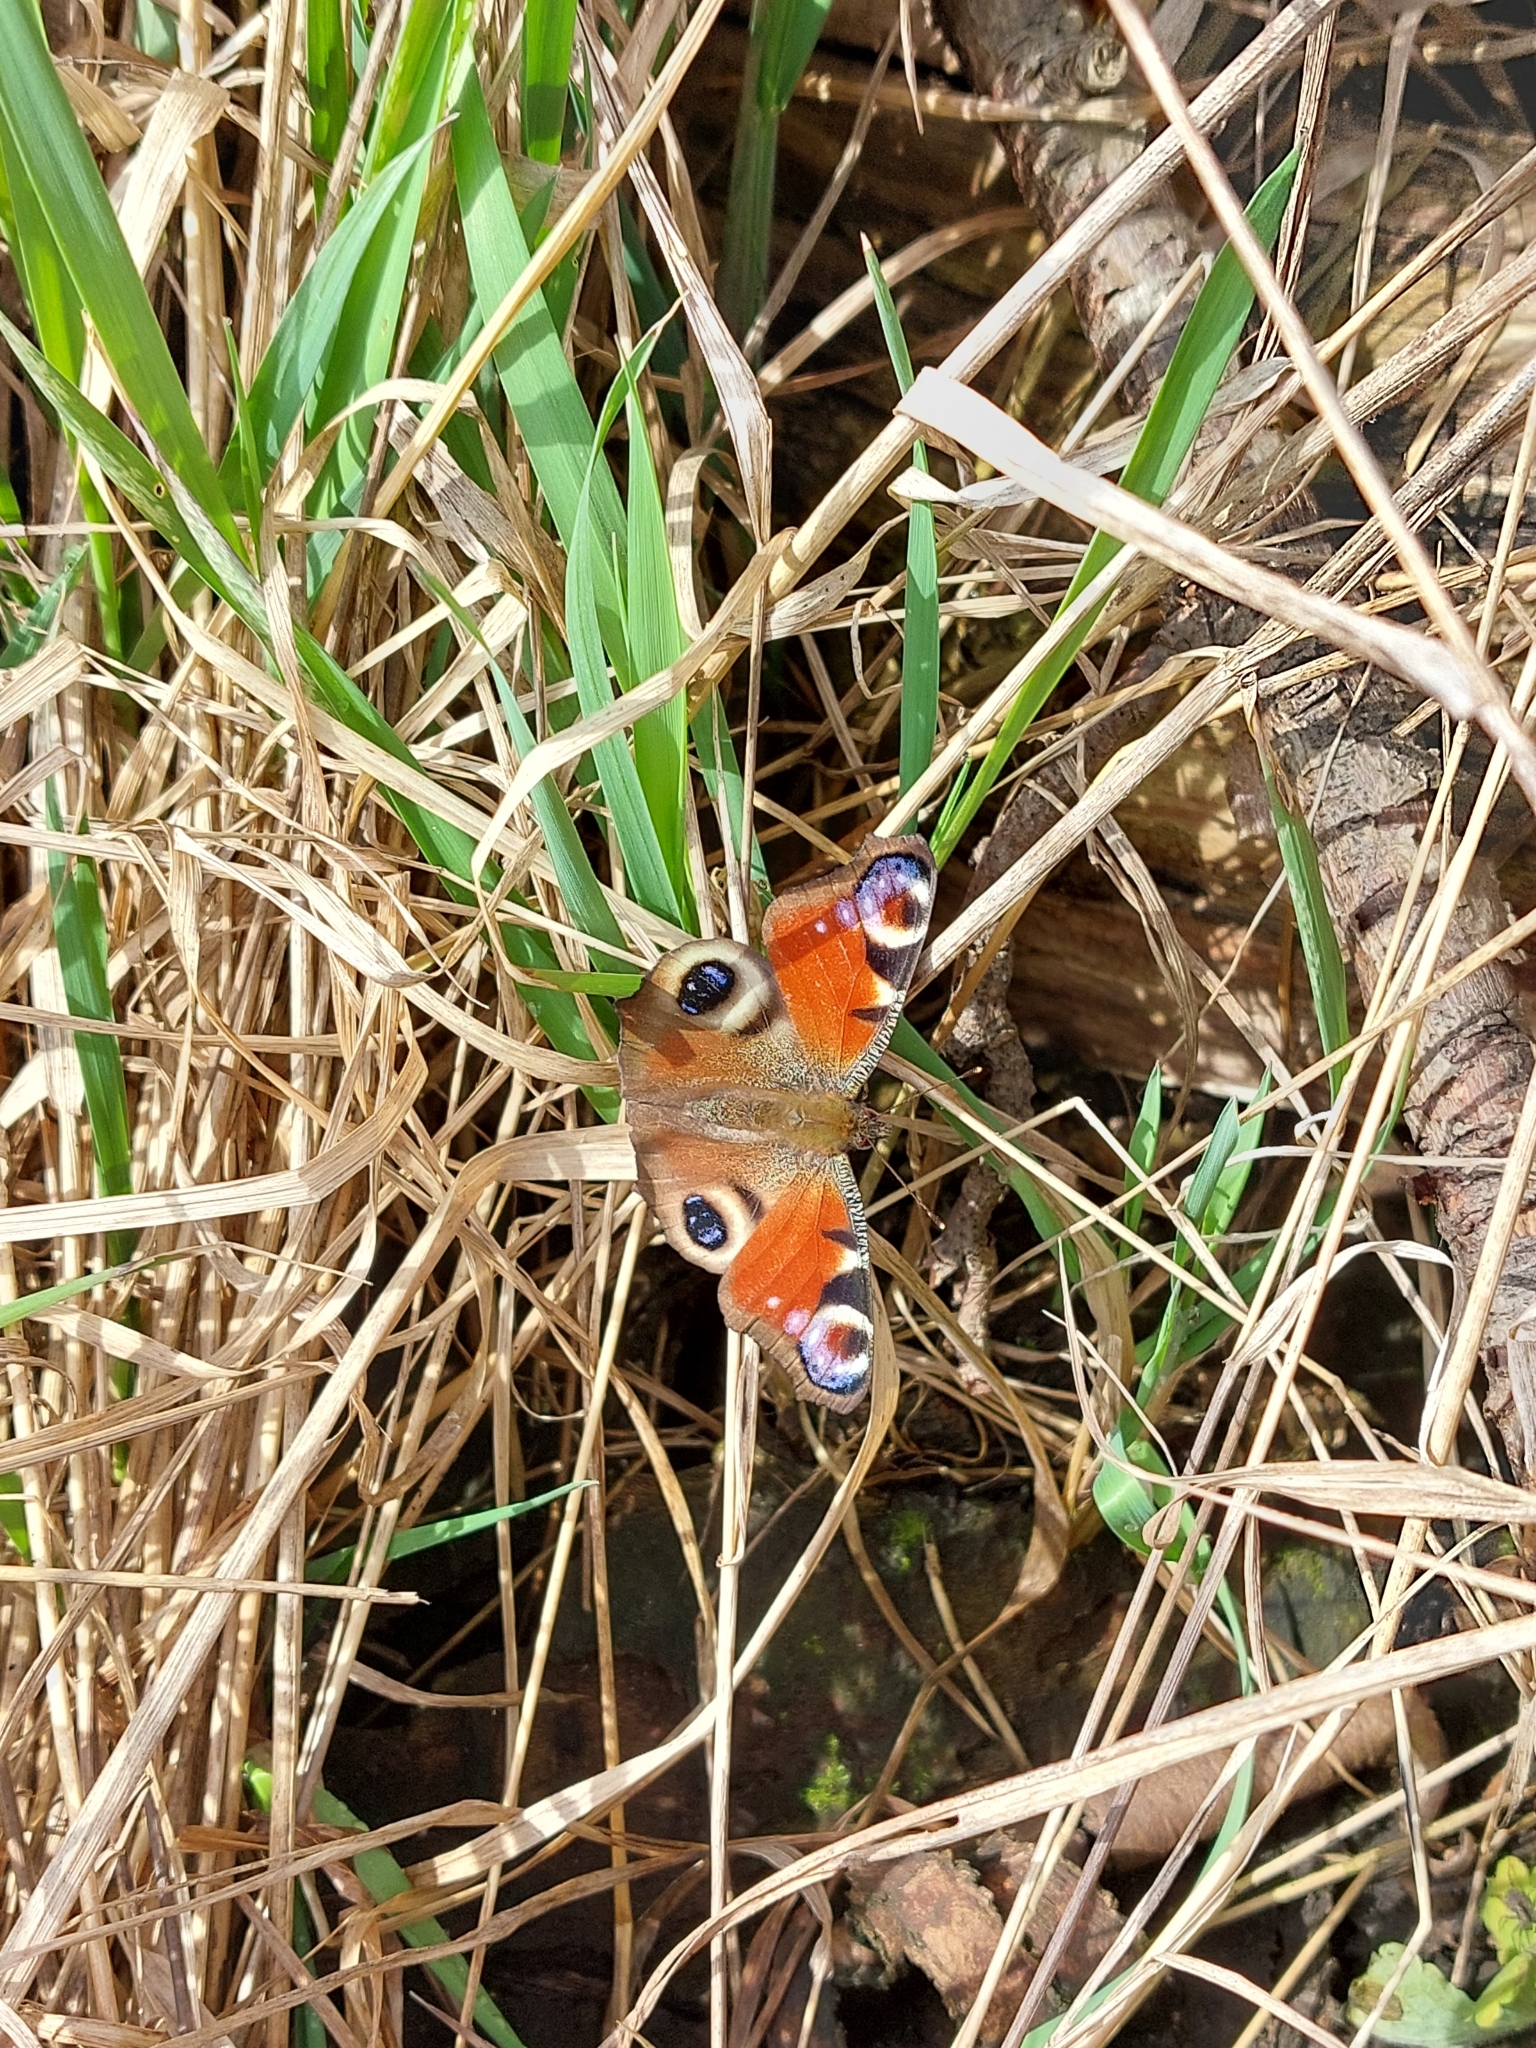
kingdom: Animalia
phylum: Arthropoda
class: Insecta
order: Lepidoptera
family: Nymphalidae
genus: Aglais
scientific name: Aglais io
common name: Peacock
